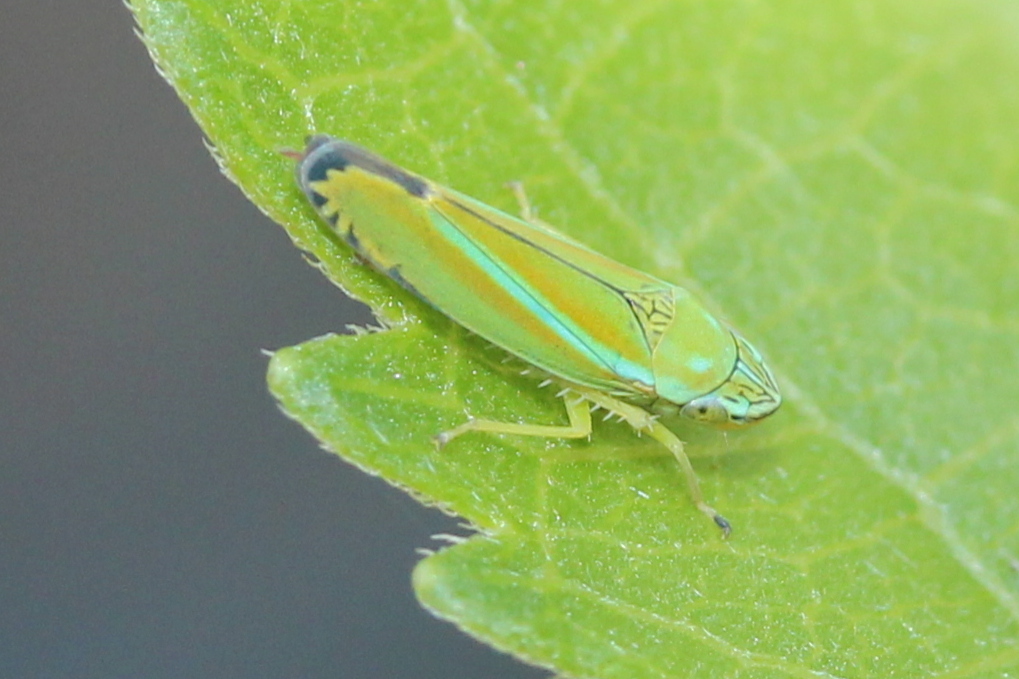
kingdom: Animalia
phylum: Arthropoda
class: Insecta
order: Hemiptera
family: Cicadellidae
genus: Graphocephala
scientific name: Graphocephala versuta
